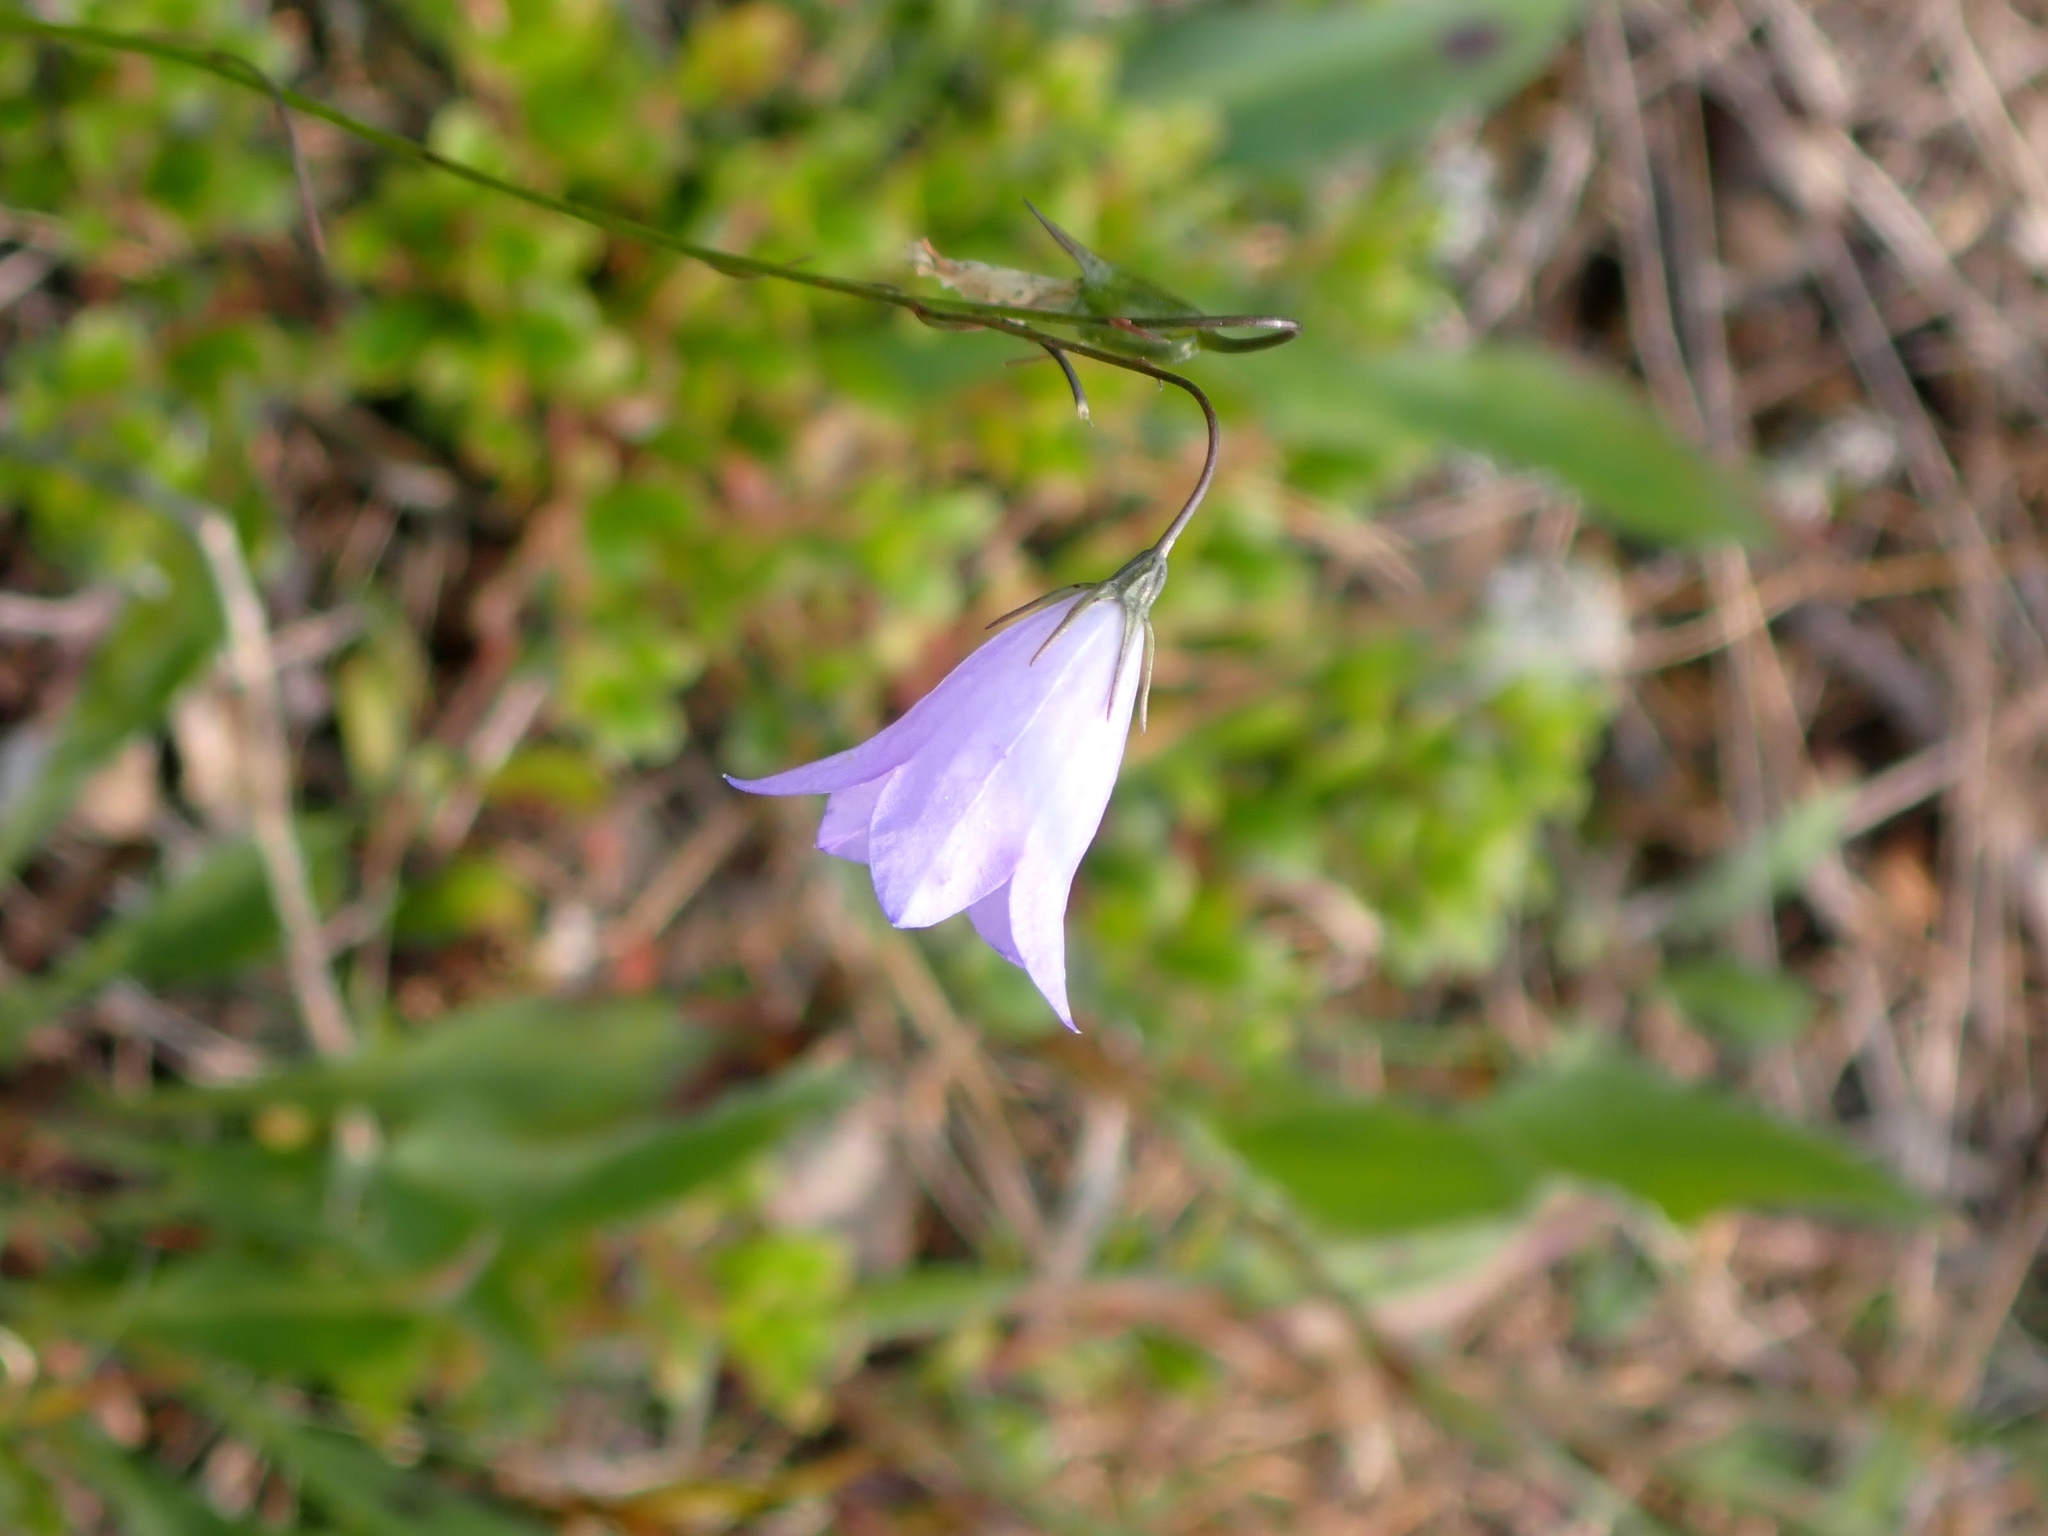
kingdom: Plantae
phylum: Tracheophyta
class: Magnoliopsida
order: Asterales
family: Campanulaceae
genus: Campanula
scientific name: Campanula petiolata
